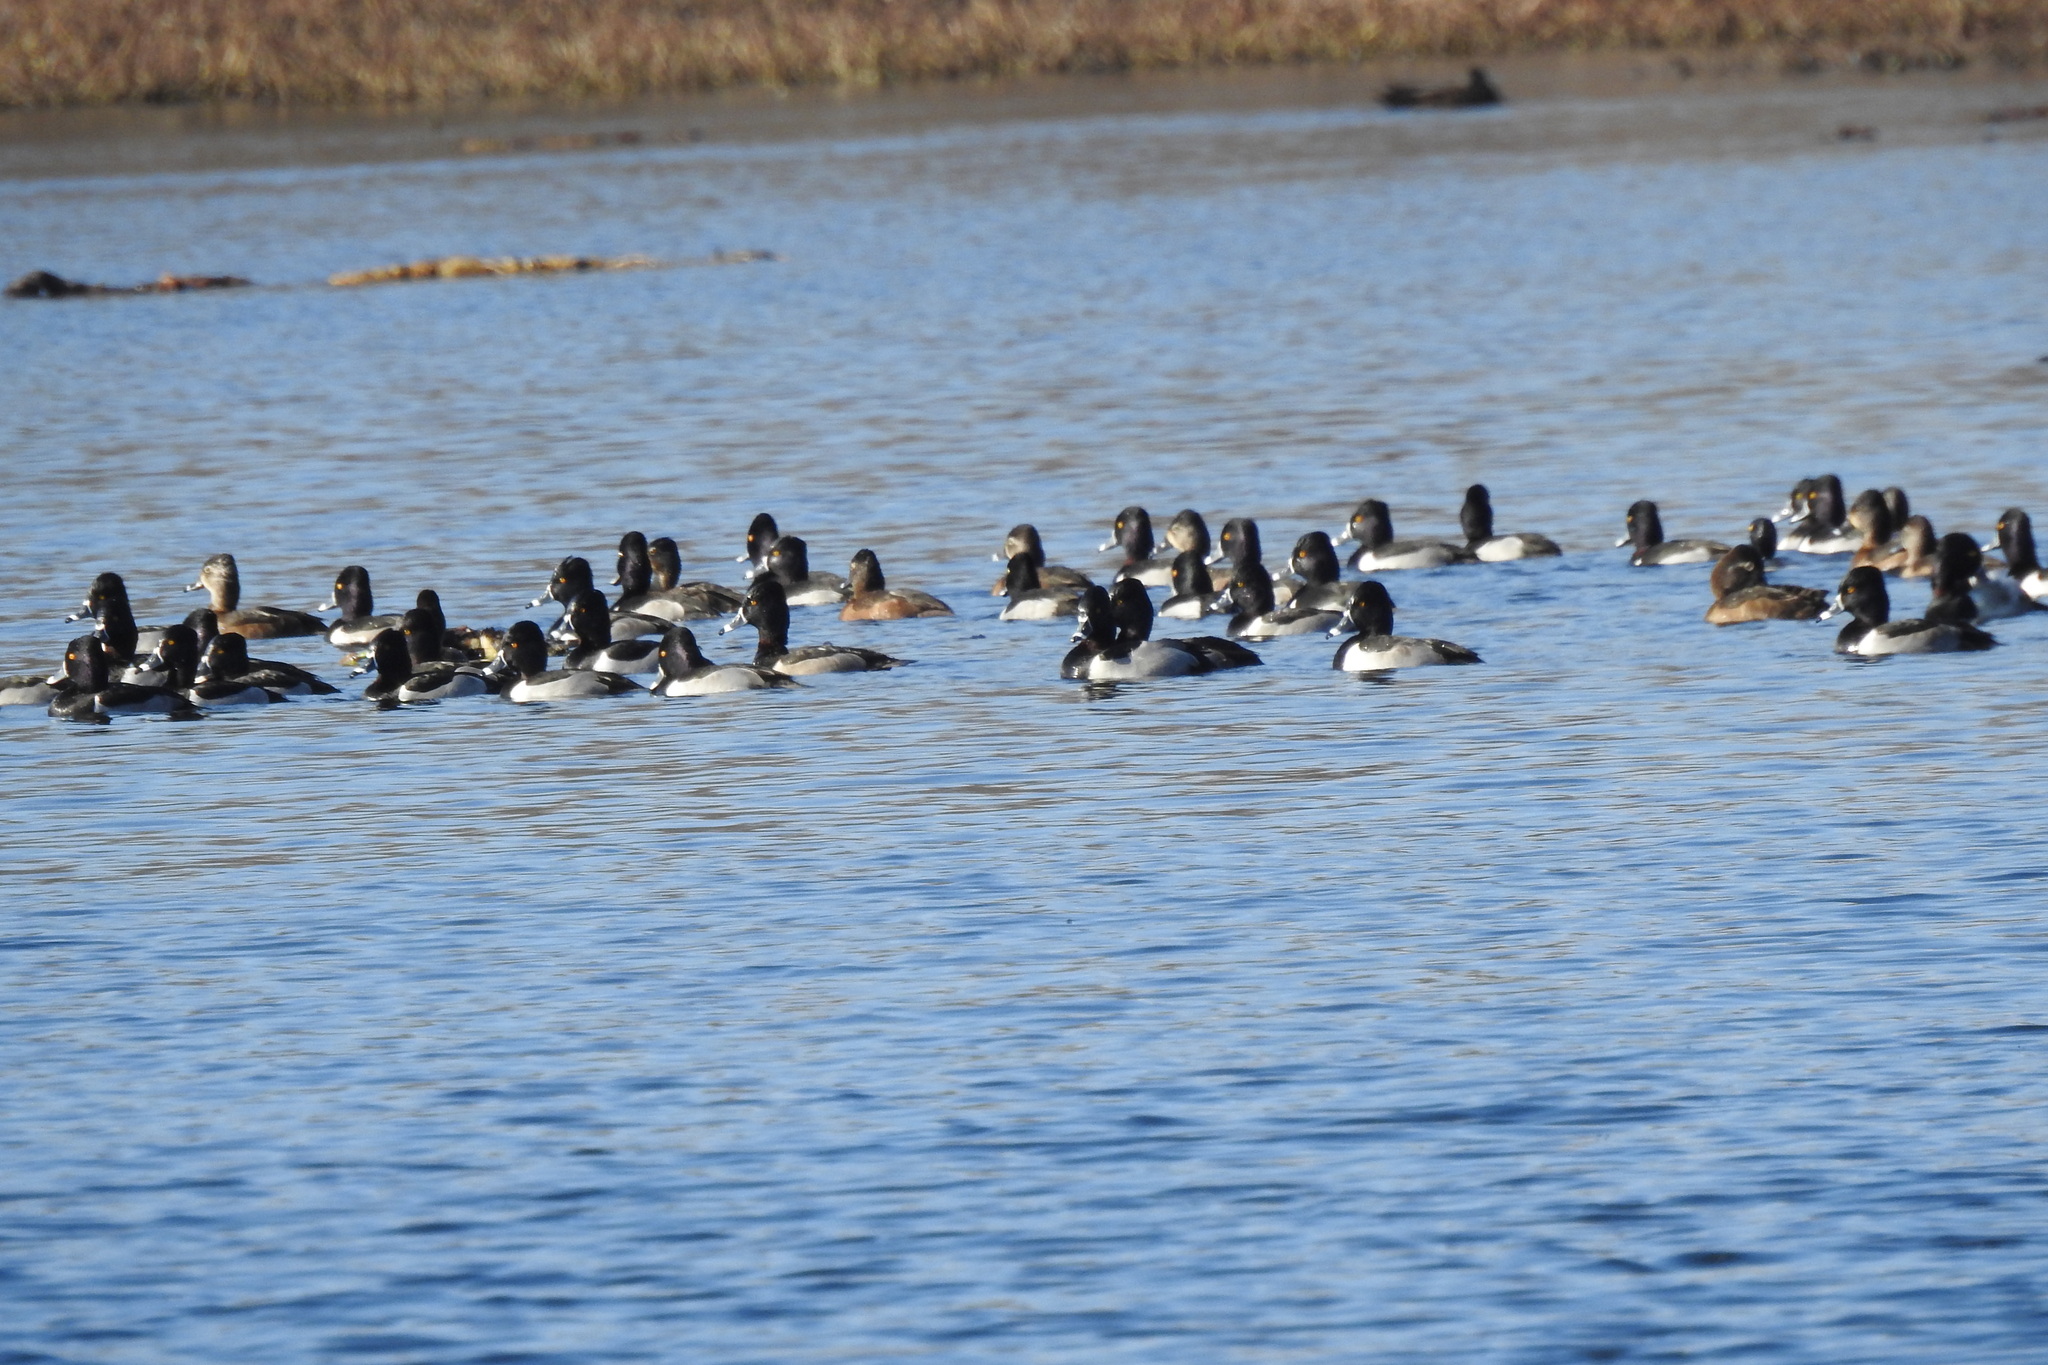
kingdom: Animalia
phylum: Chordata
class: Aves
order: Anseriformes
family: Anatidae
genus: Aythya
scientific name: Aythya collaris
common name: Ring-necked duck
